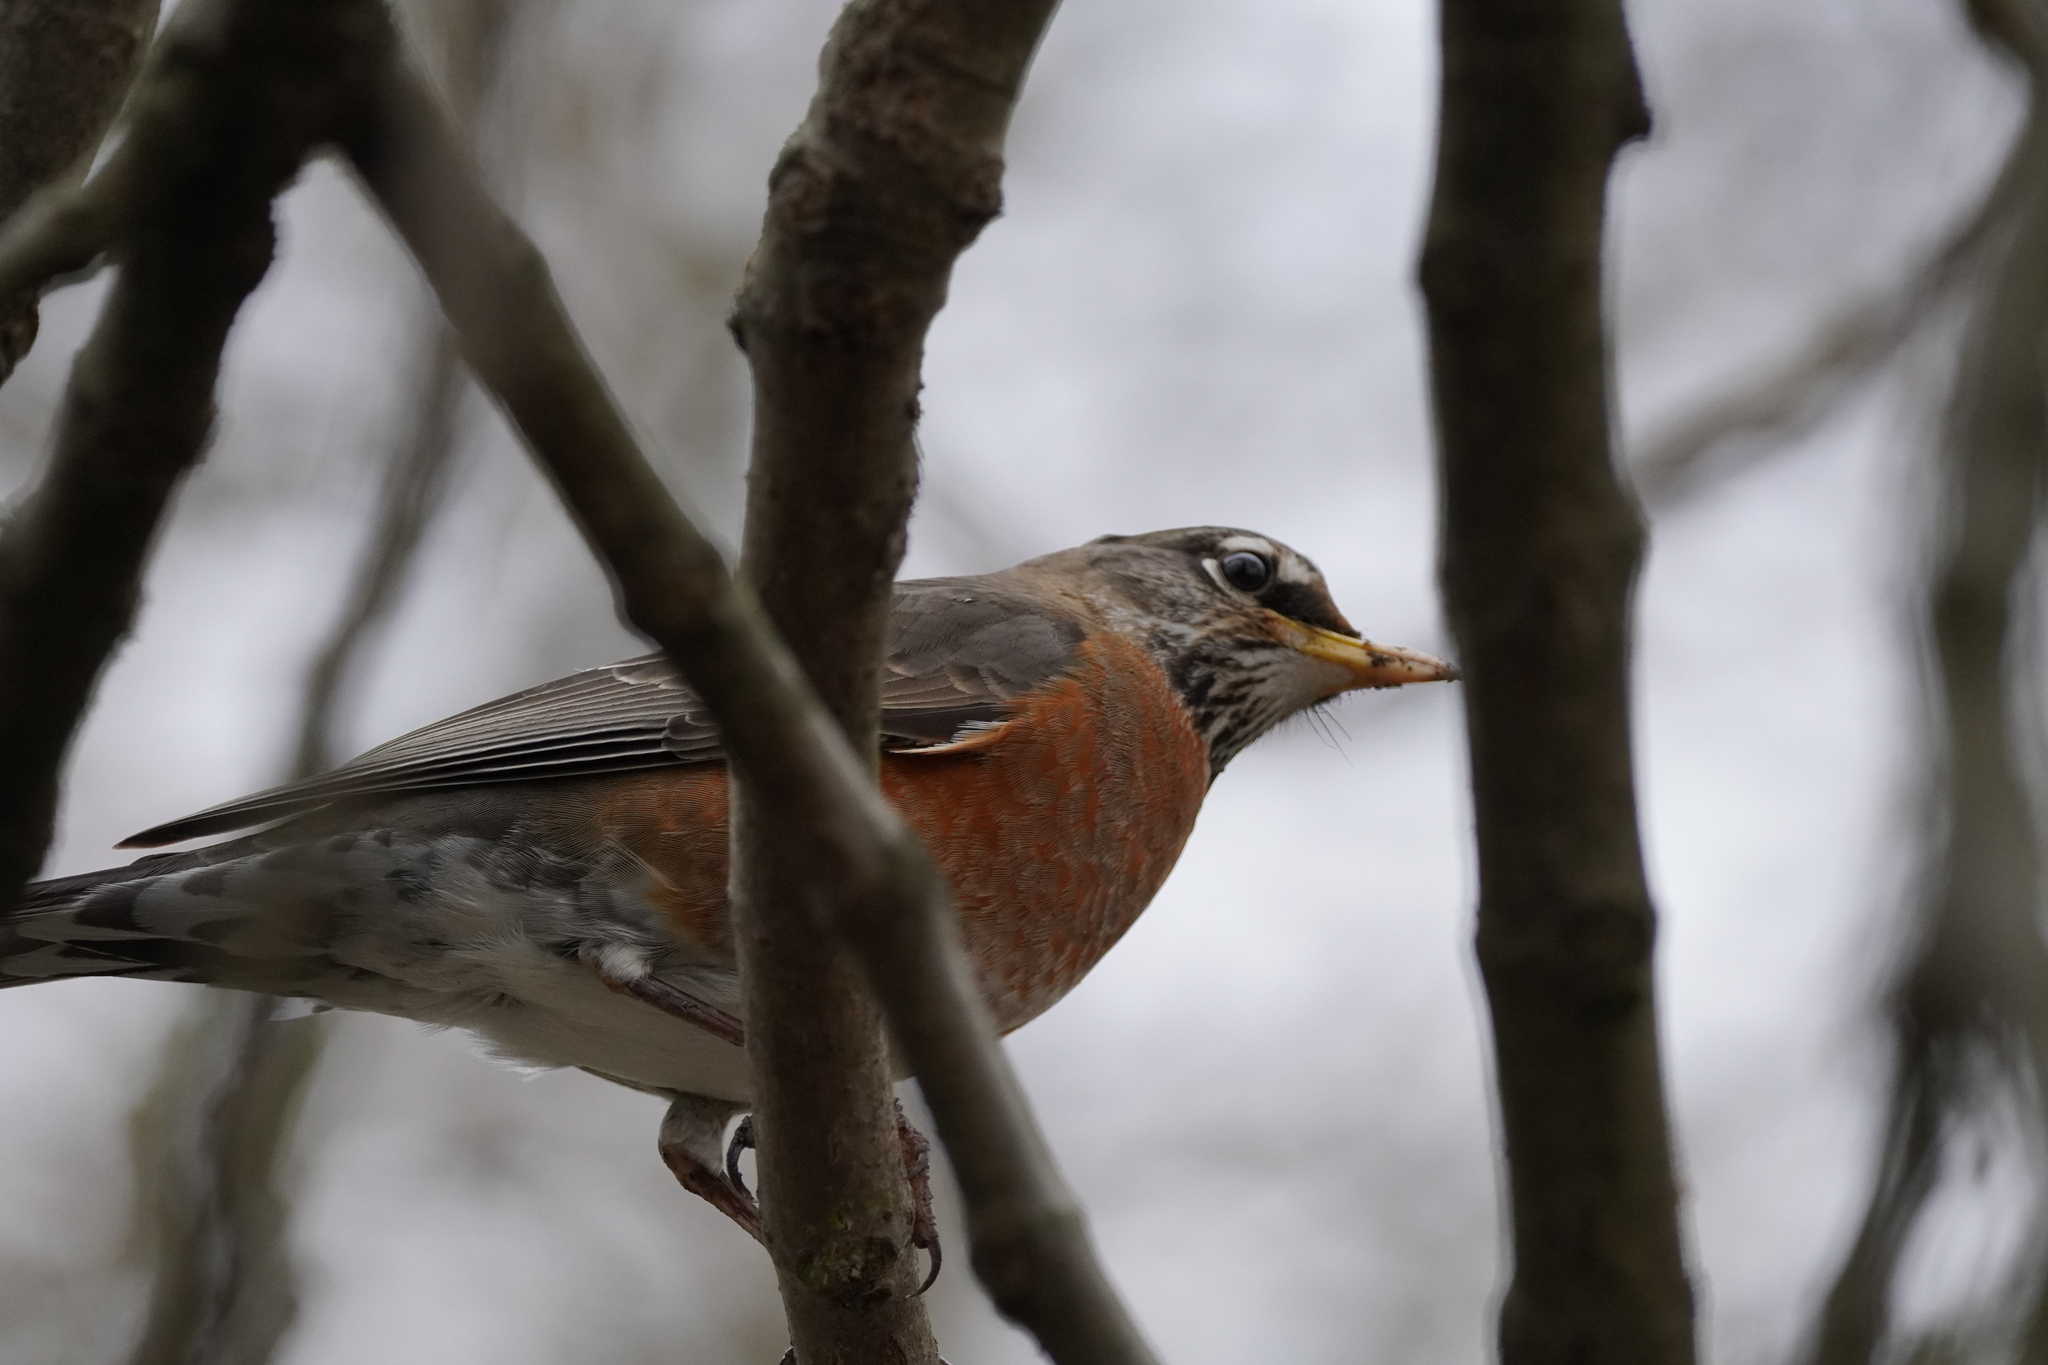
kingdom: Animalia
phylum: Chordata
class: Aves
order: Passeriformes
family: Turdidae
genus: Turdus
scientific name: Turdus migratorius
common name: American robin
